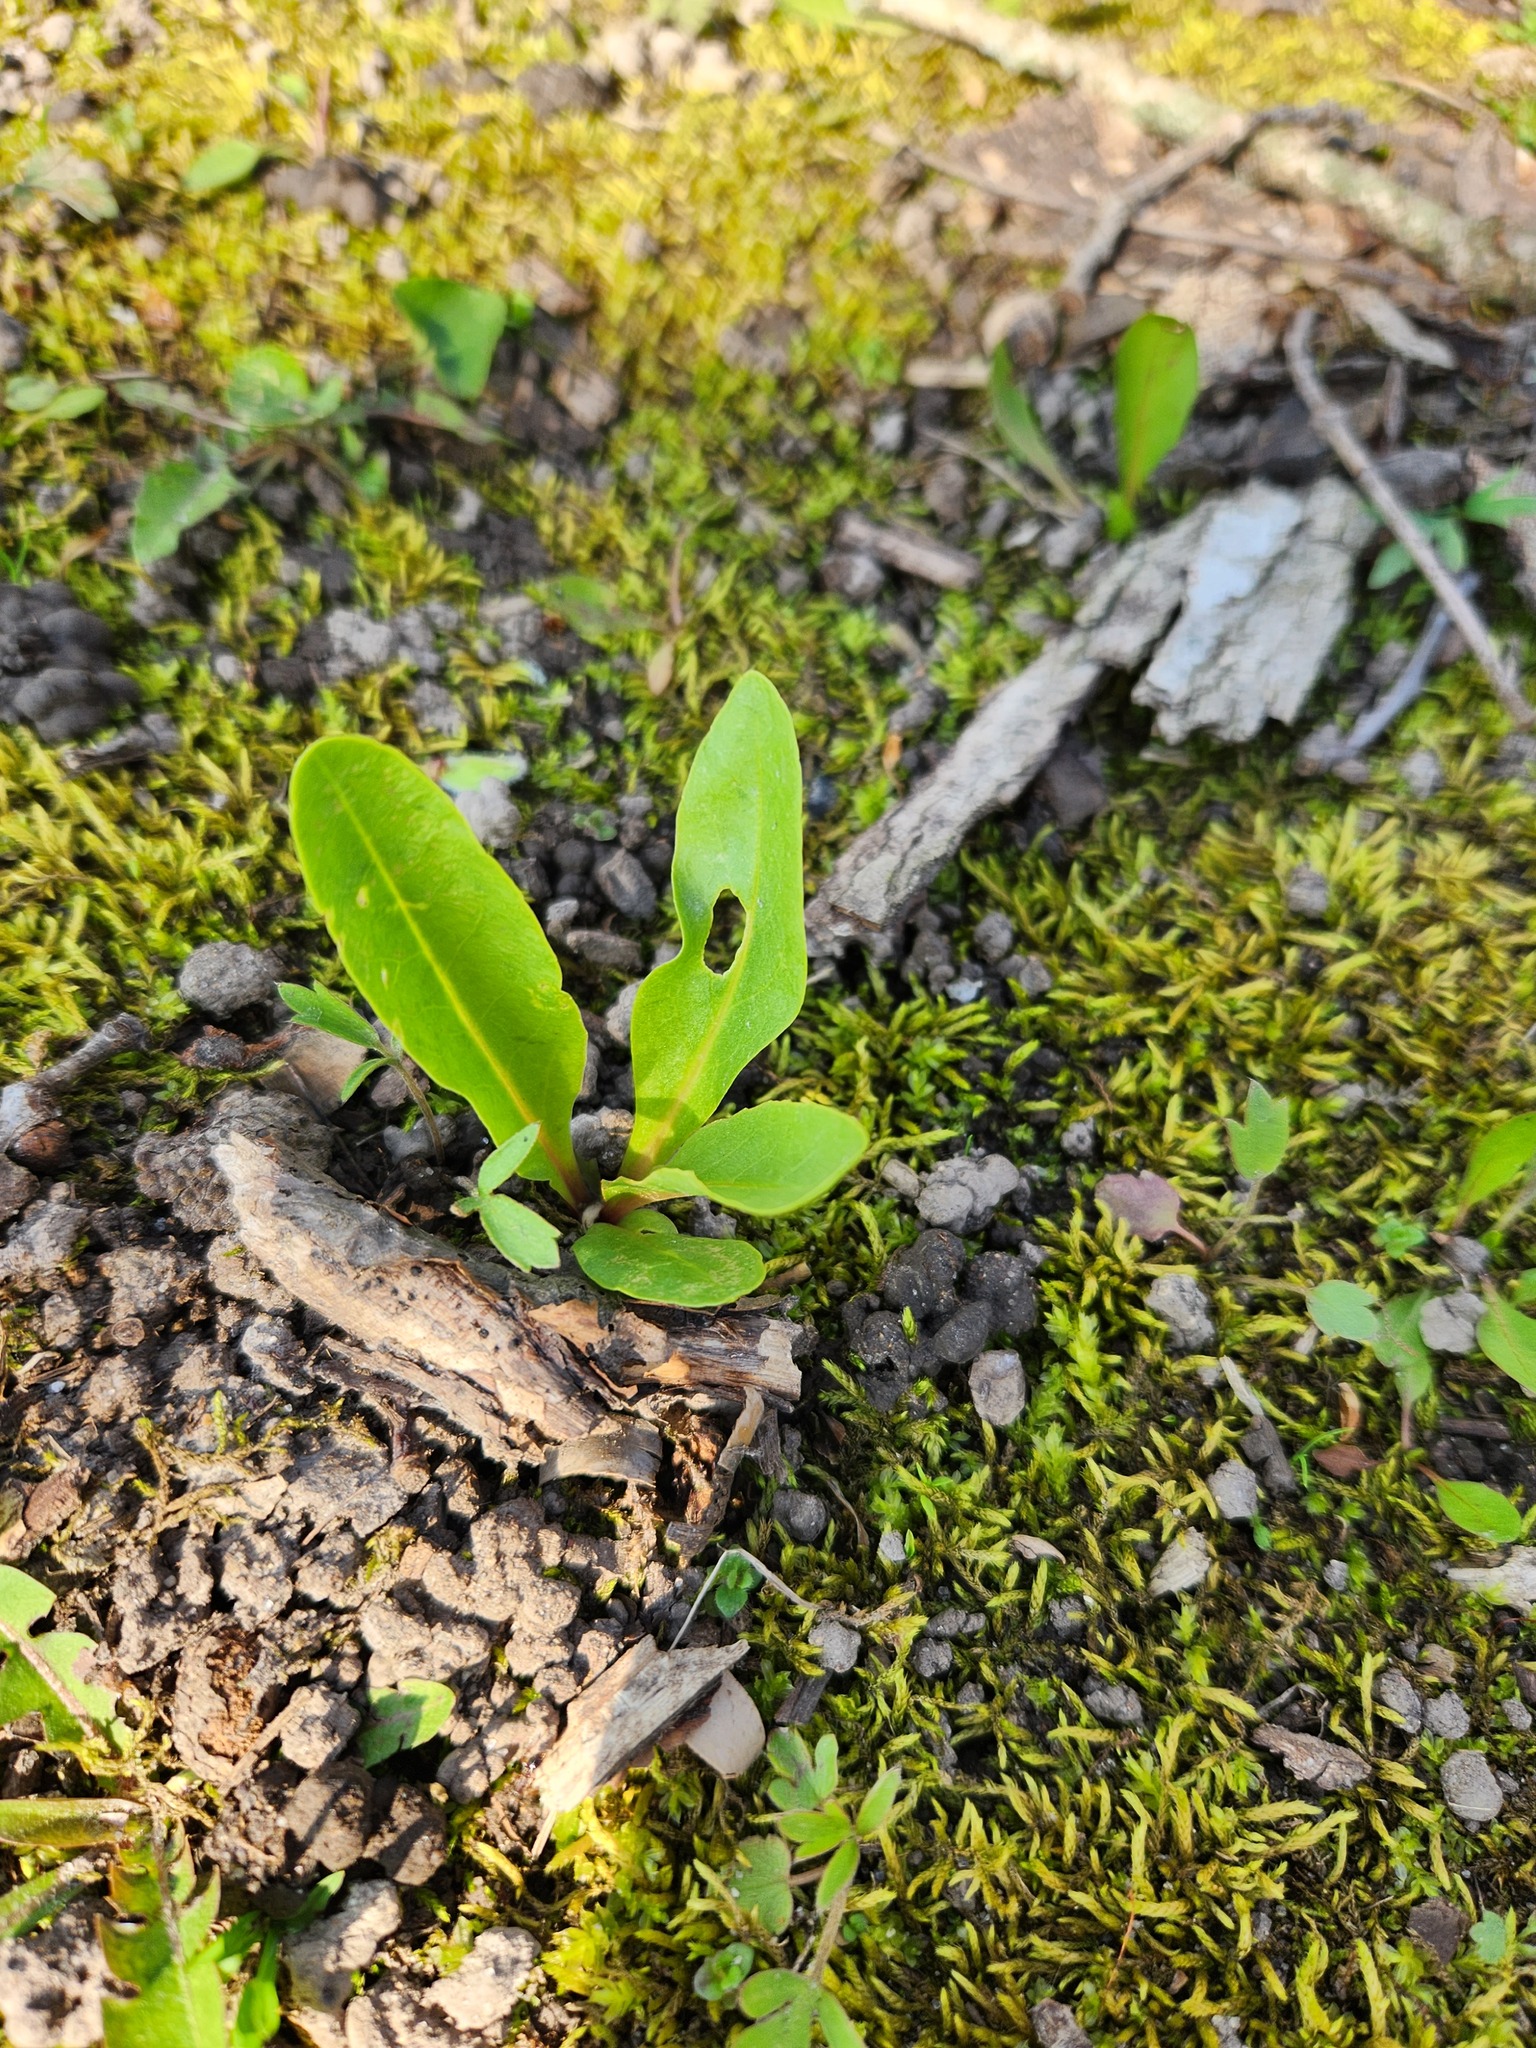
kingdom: Plantae
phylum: Tracheophyta
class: Magnoliopsida
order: Ericales
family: Primulaceae
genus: Dodecatheon
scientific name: Dodecatheon meadia
